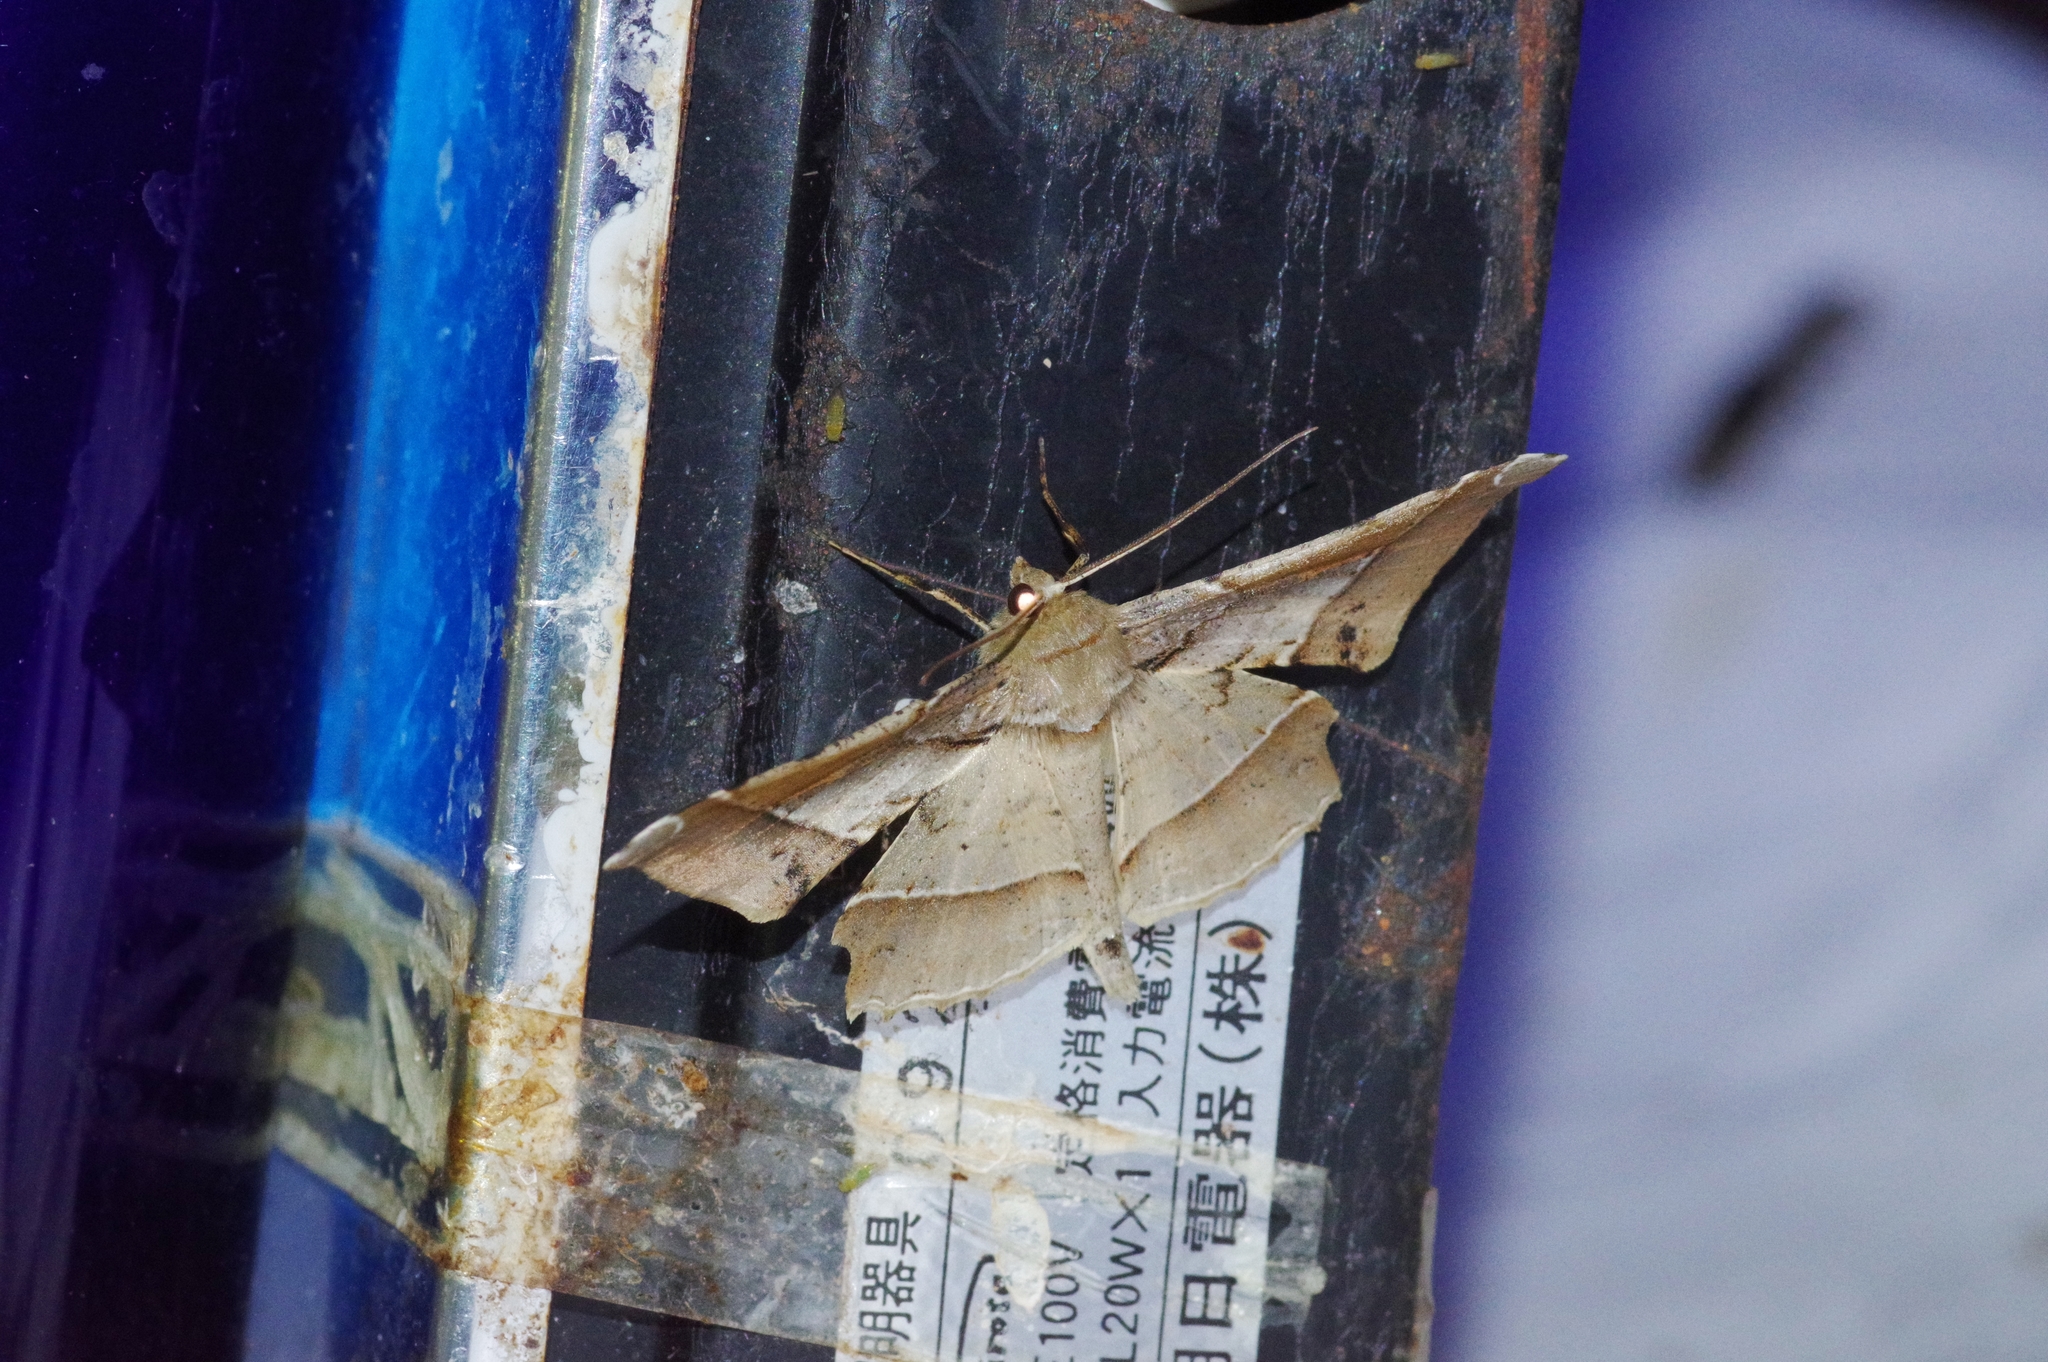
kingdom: Animalia
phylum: Arthropoda
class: Insecta
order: Lepidoptera
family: Geometridae
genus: Krananda
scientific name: Krananda latimarginaria
